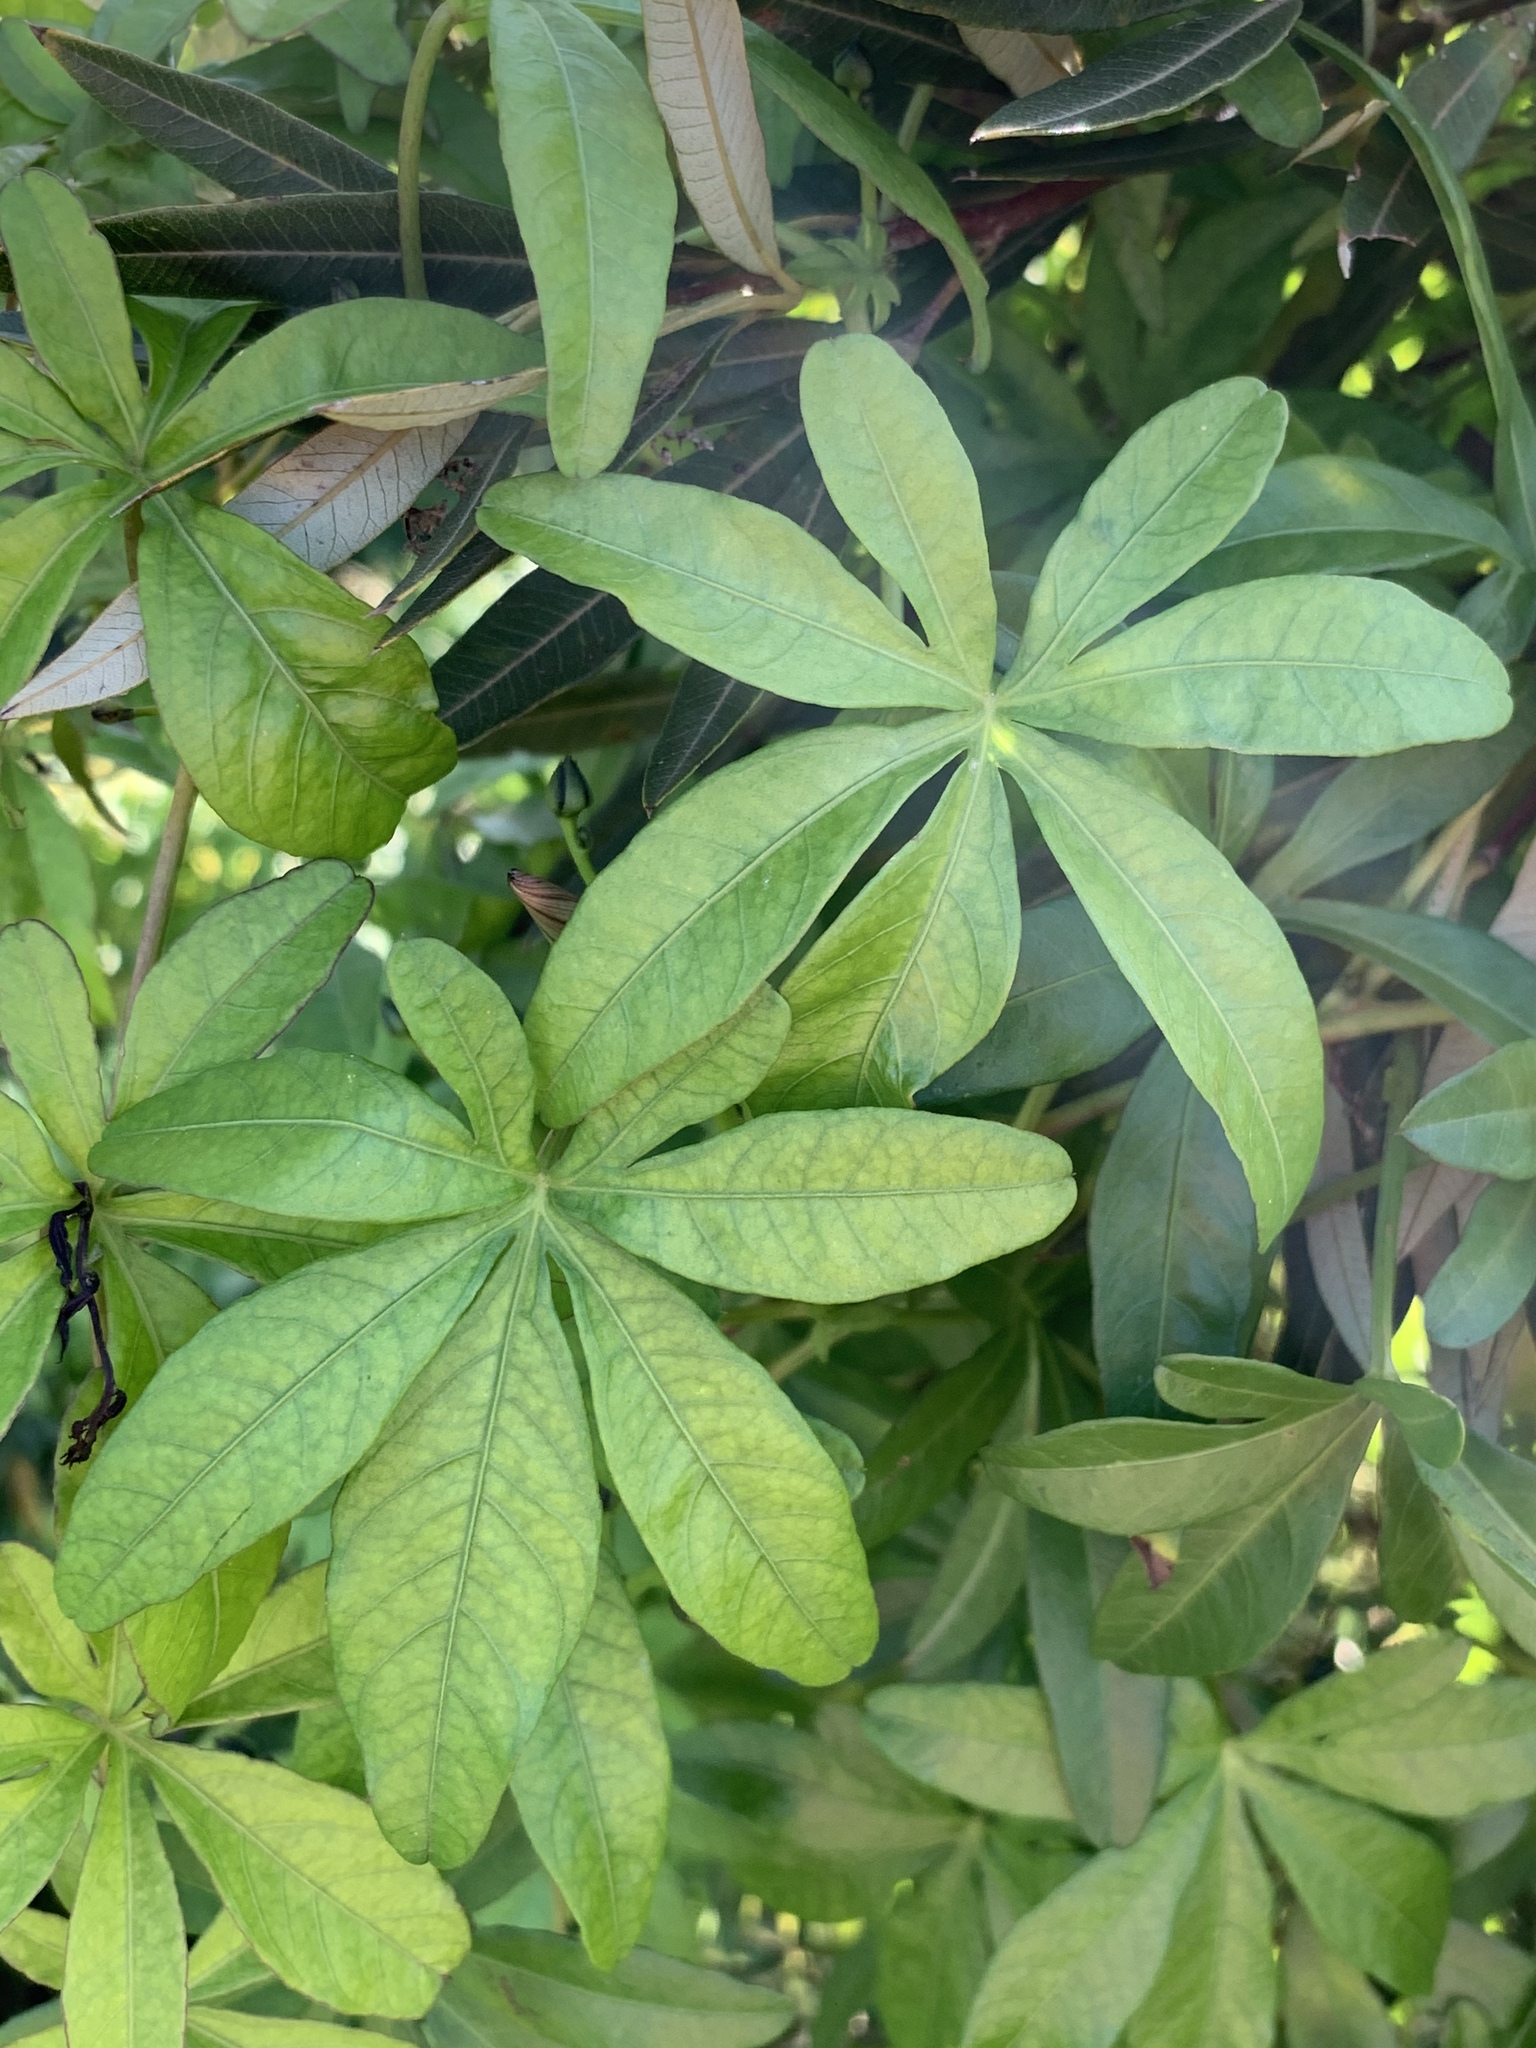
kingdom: Plantae
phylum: Tracheophyta
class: Magnoliopsida
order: Solanales
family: Convolvulaceae
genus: Ipomoea
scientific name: Ipomoea cairica
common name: Mile a minute vine
